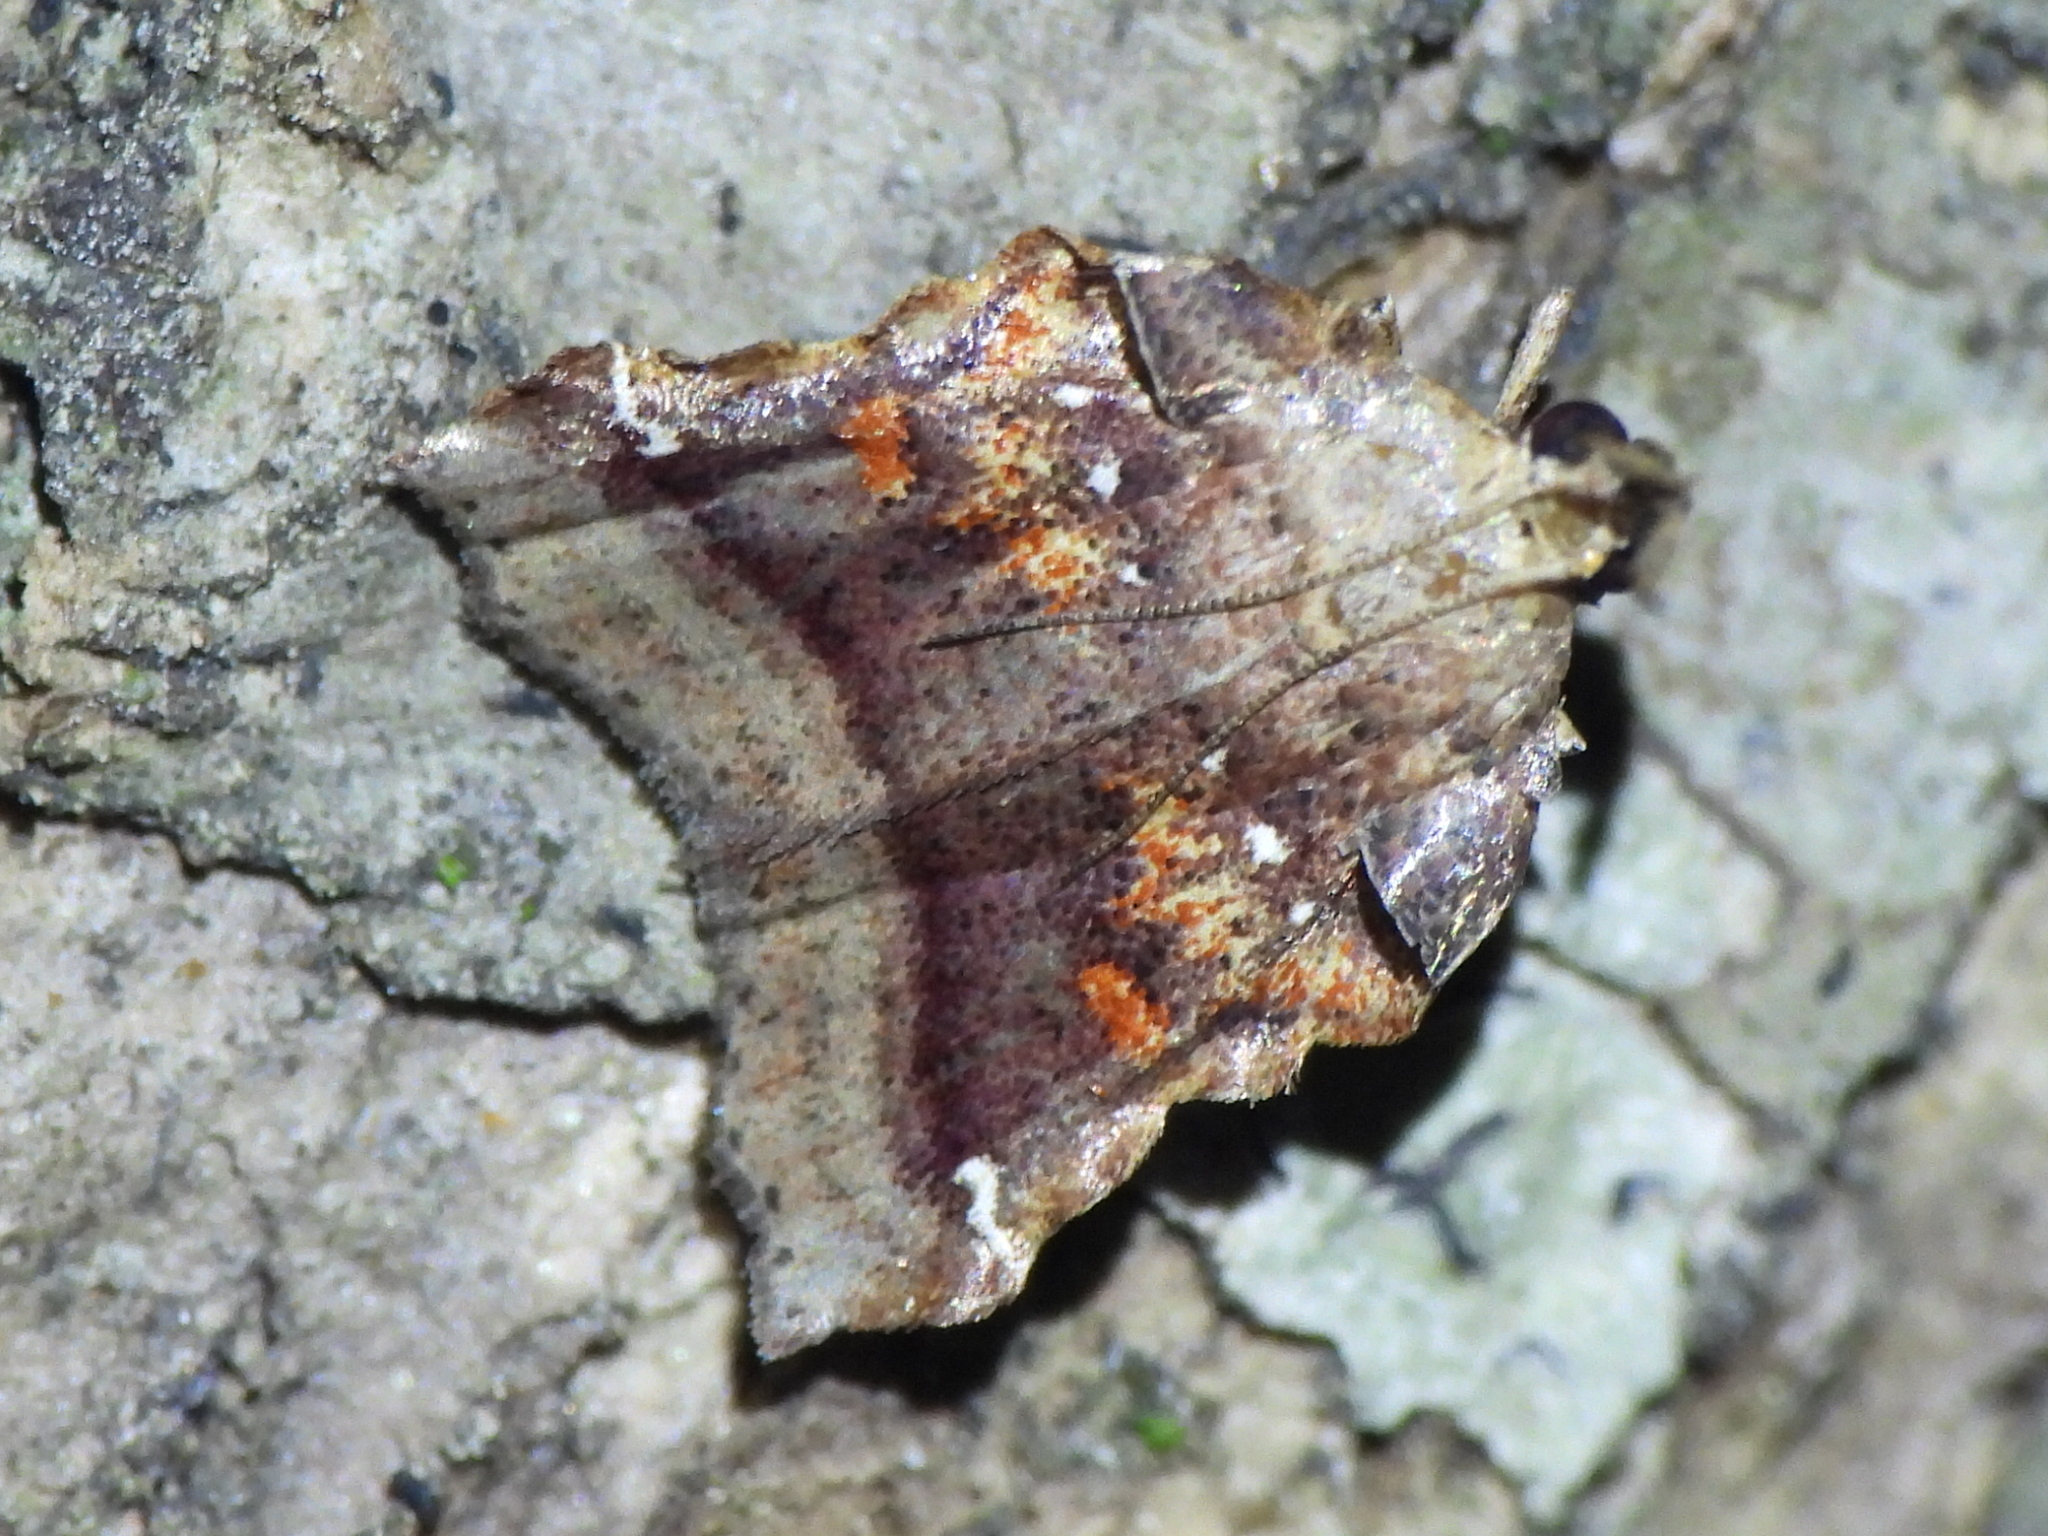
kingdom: Animalia
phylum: Arthropoda
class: Insecta
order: Lepidoptera
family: Pyralidae
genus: Clydonopteron
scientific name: Clydonopteron sacculana
